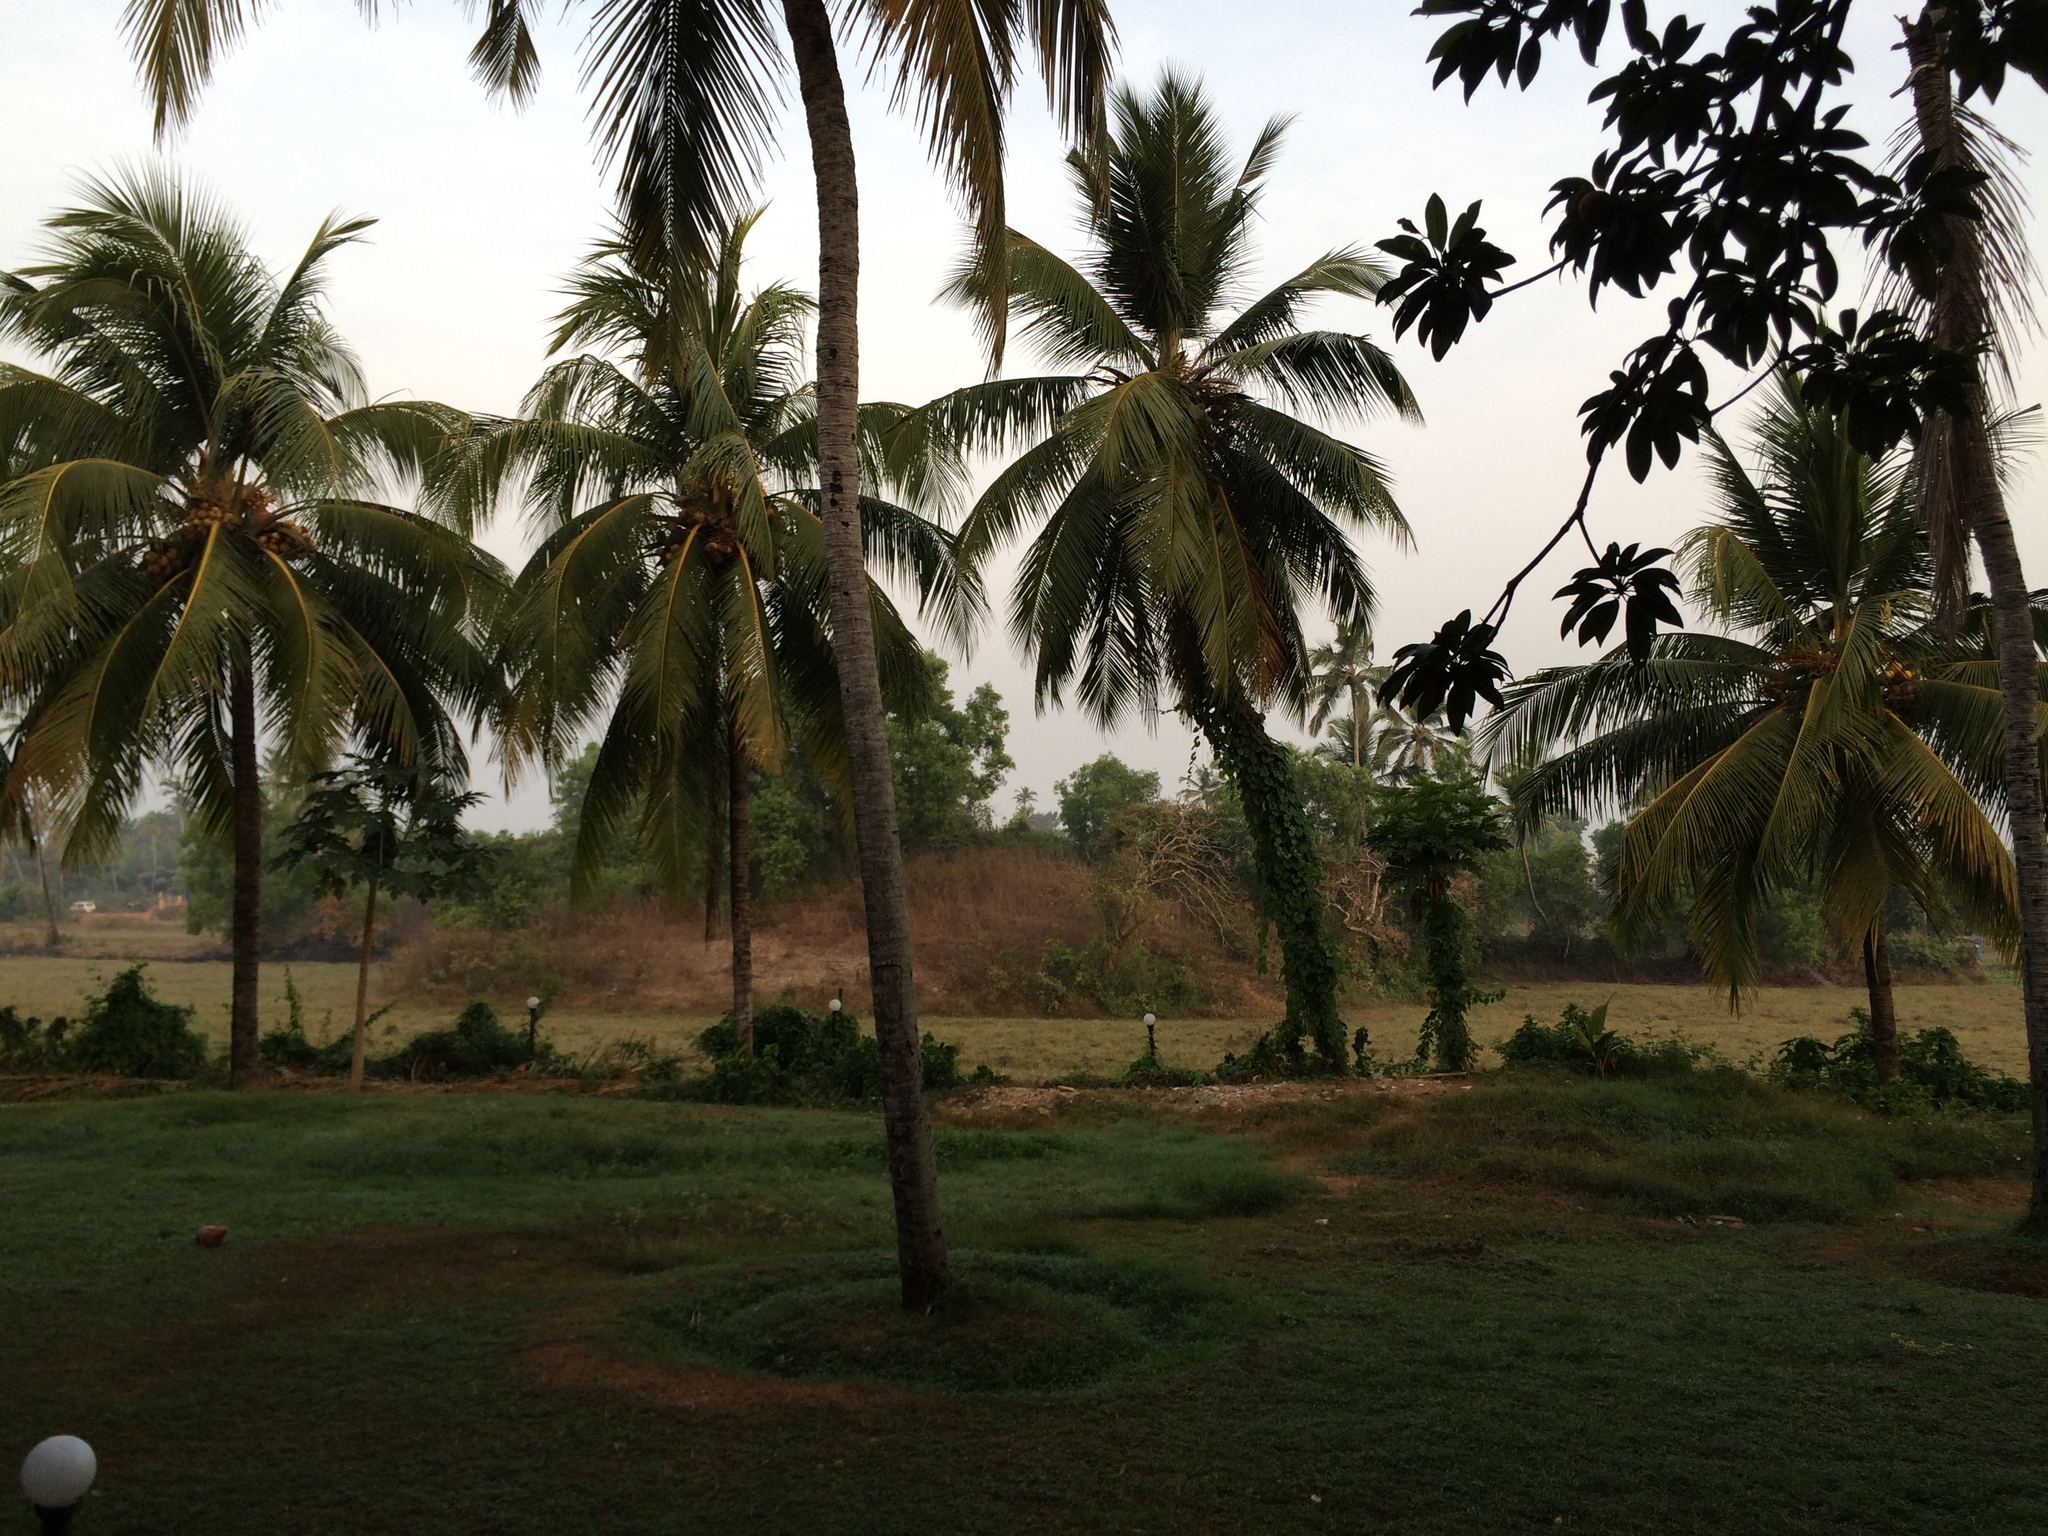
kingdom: Plantae
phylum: Tracheophyta
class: Liliopsida
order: Arecales
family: Arecaceae
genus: Cocos
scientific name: Cocos nucifera
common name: Coconut palm
